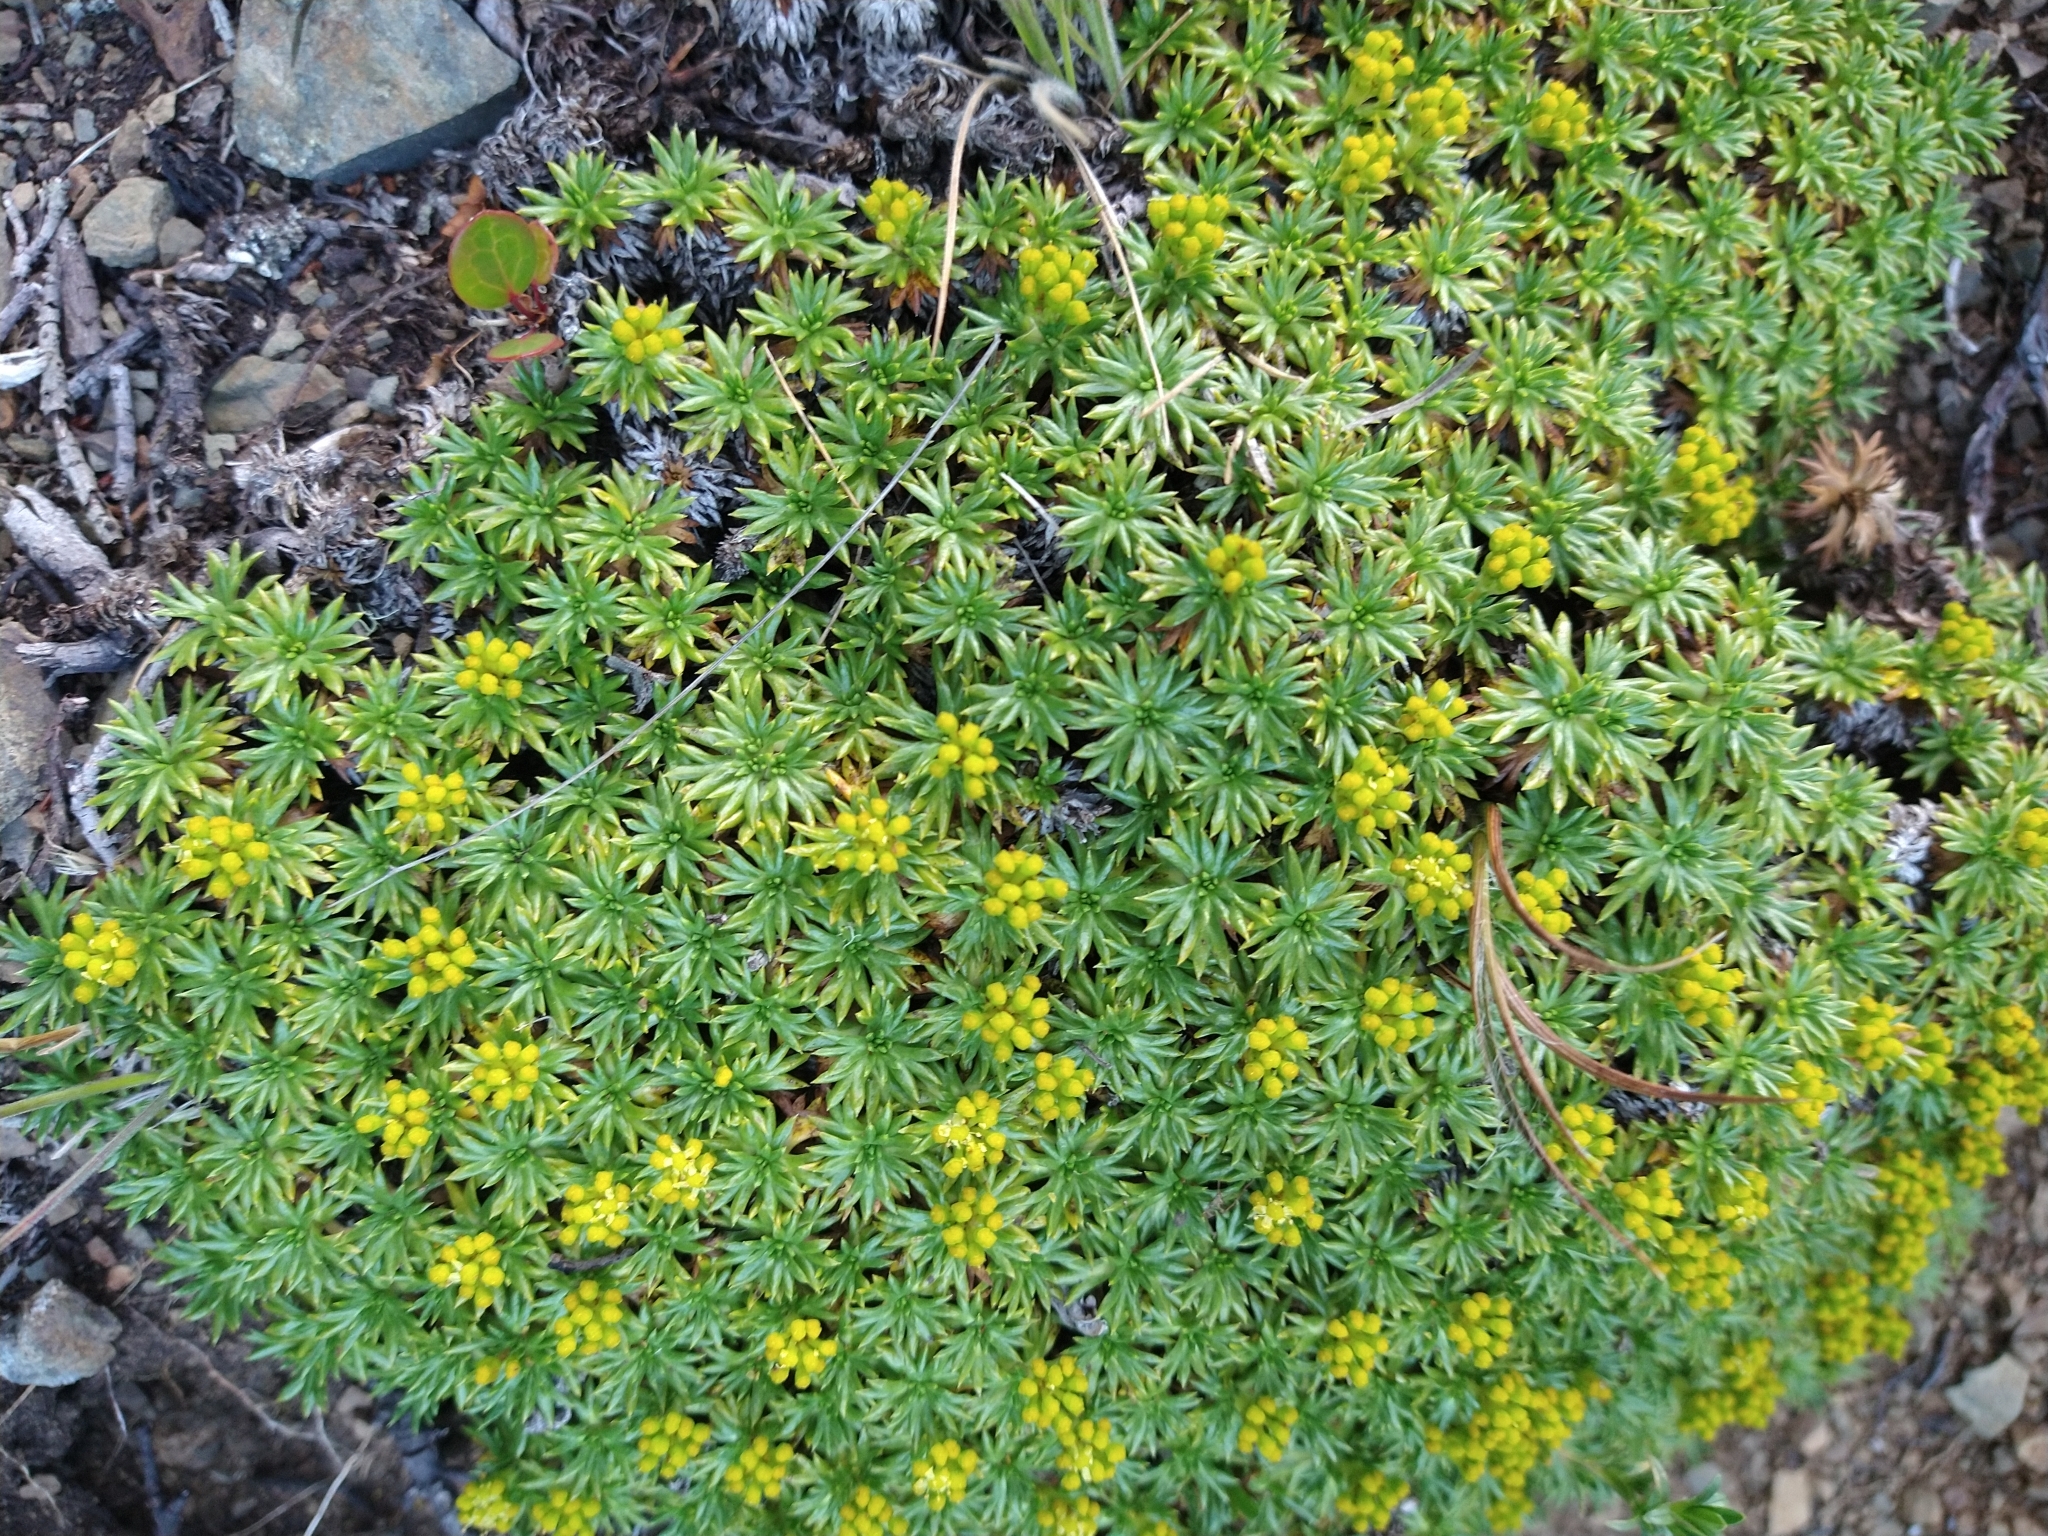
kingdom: Plantae
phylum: Tracheophyta
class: Magnoliopsida
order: Apiales
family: Apiaceae
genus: Azorella
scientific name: Azorella trifurcata
